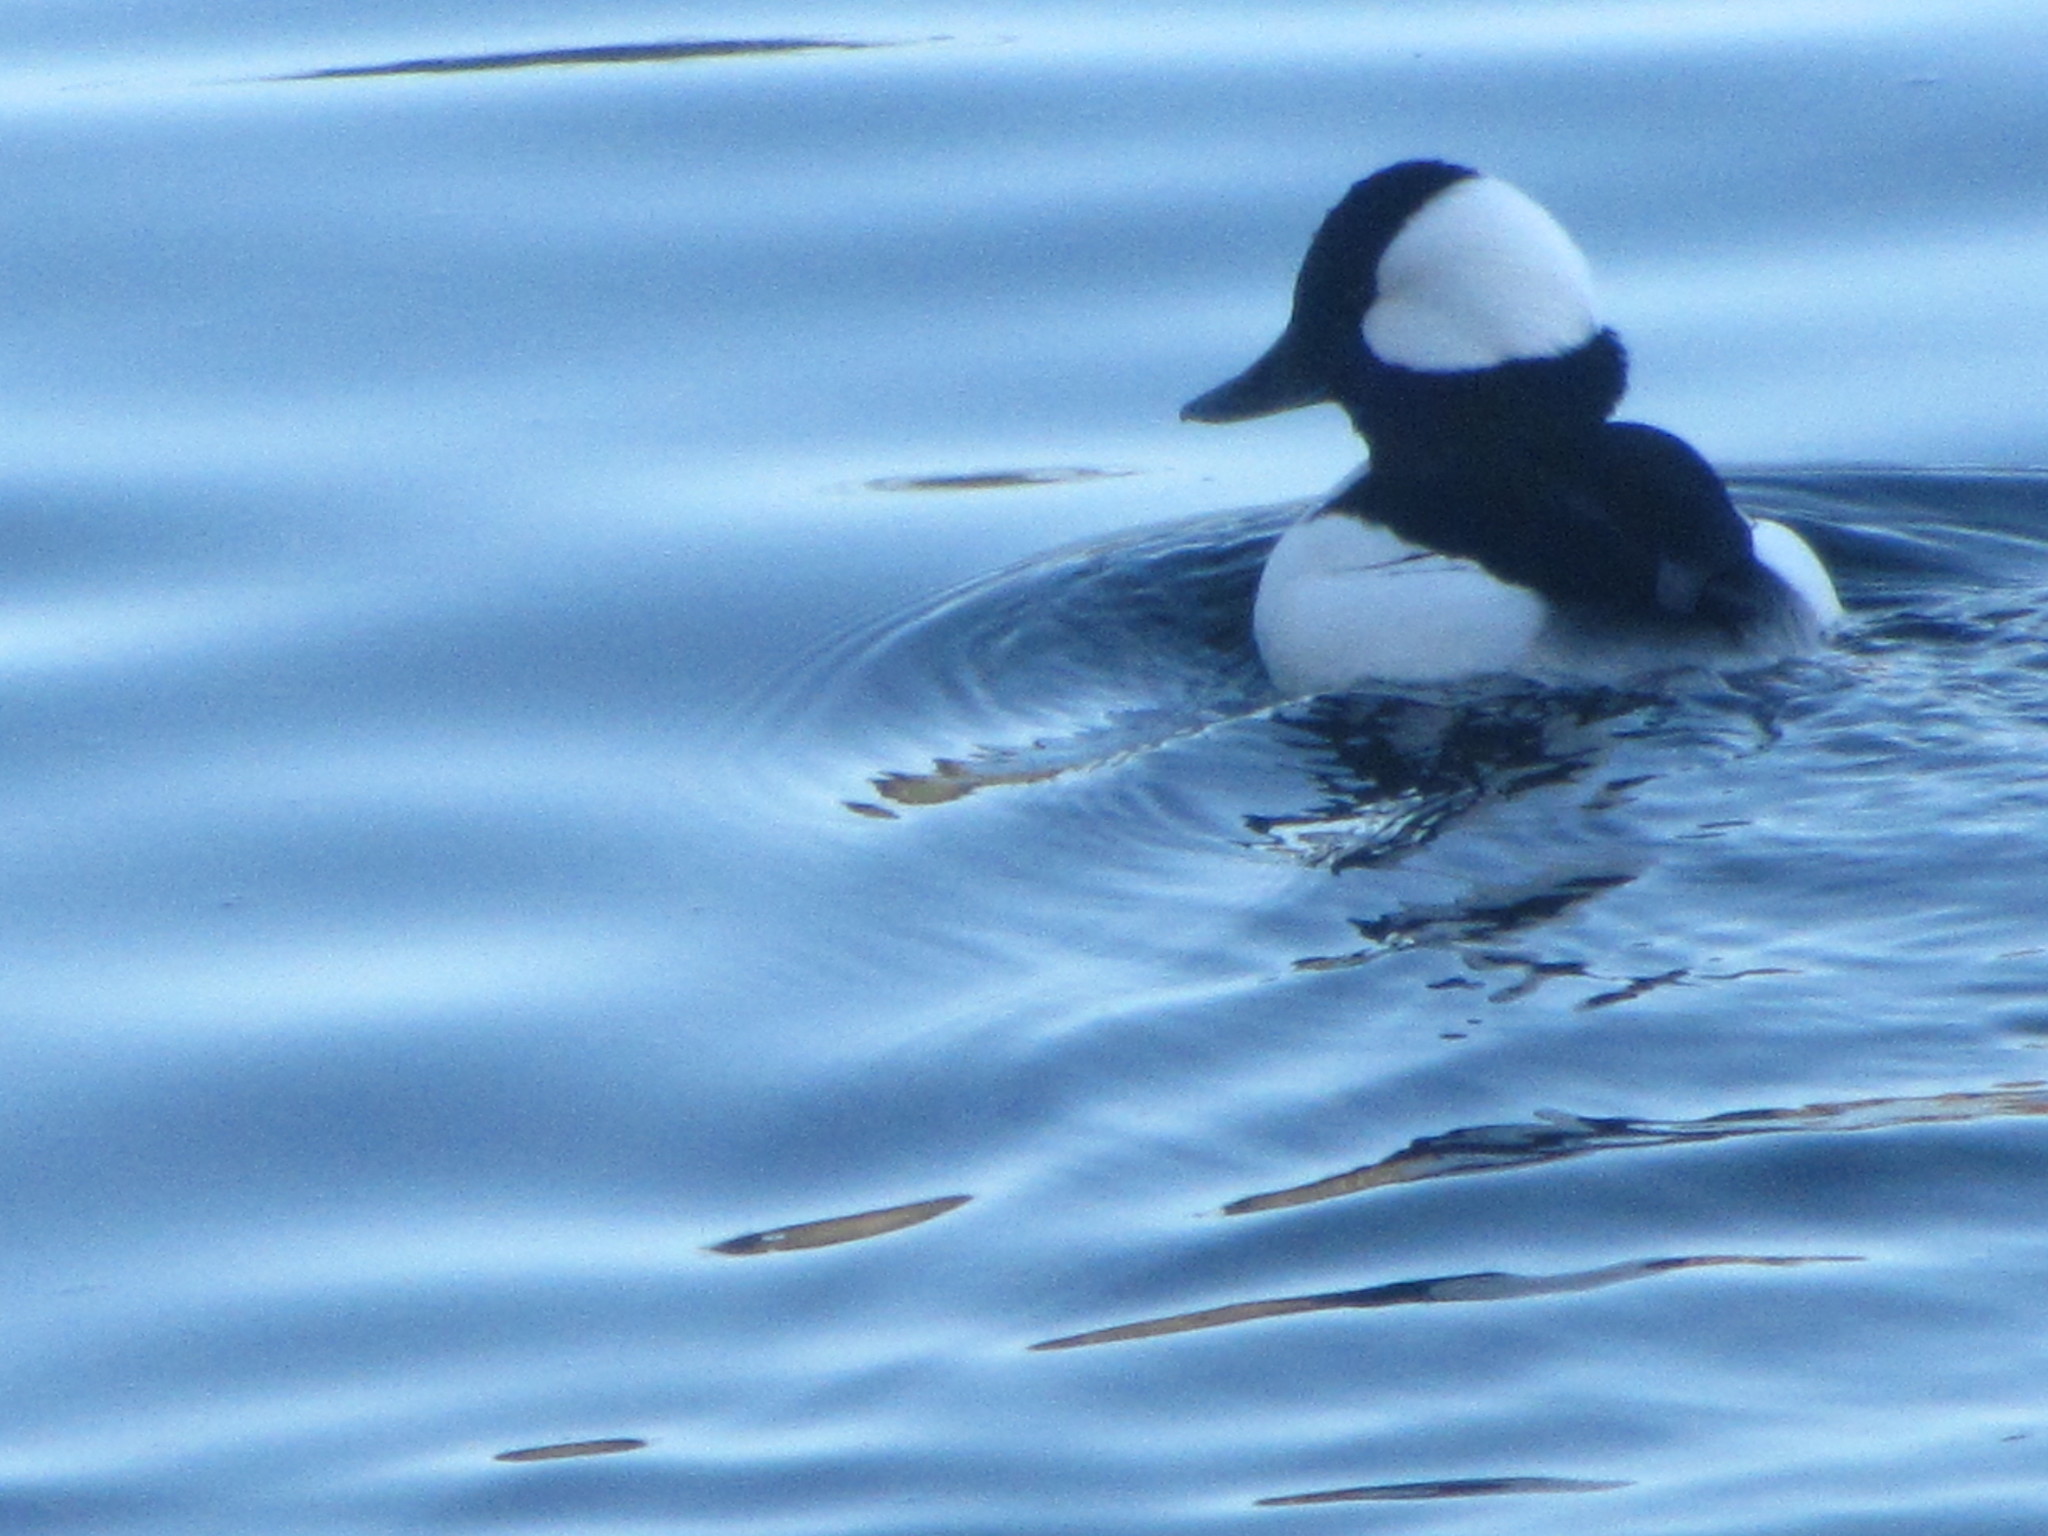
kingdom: Animalia
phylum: Chordata
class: Aves
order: Anseriformes
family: Anatidae
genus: Bucephala
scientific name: Bucephala albeola
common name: Bufflehead
